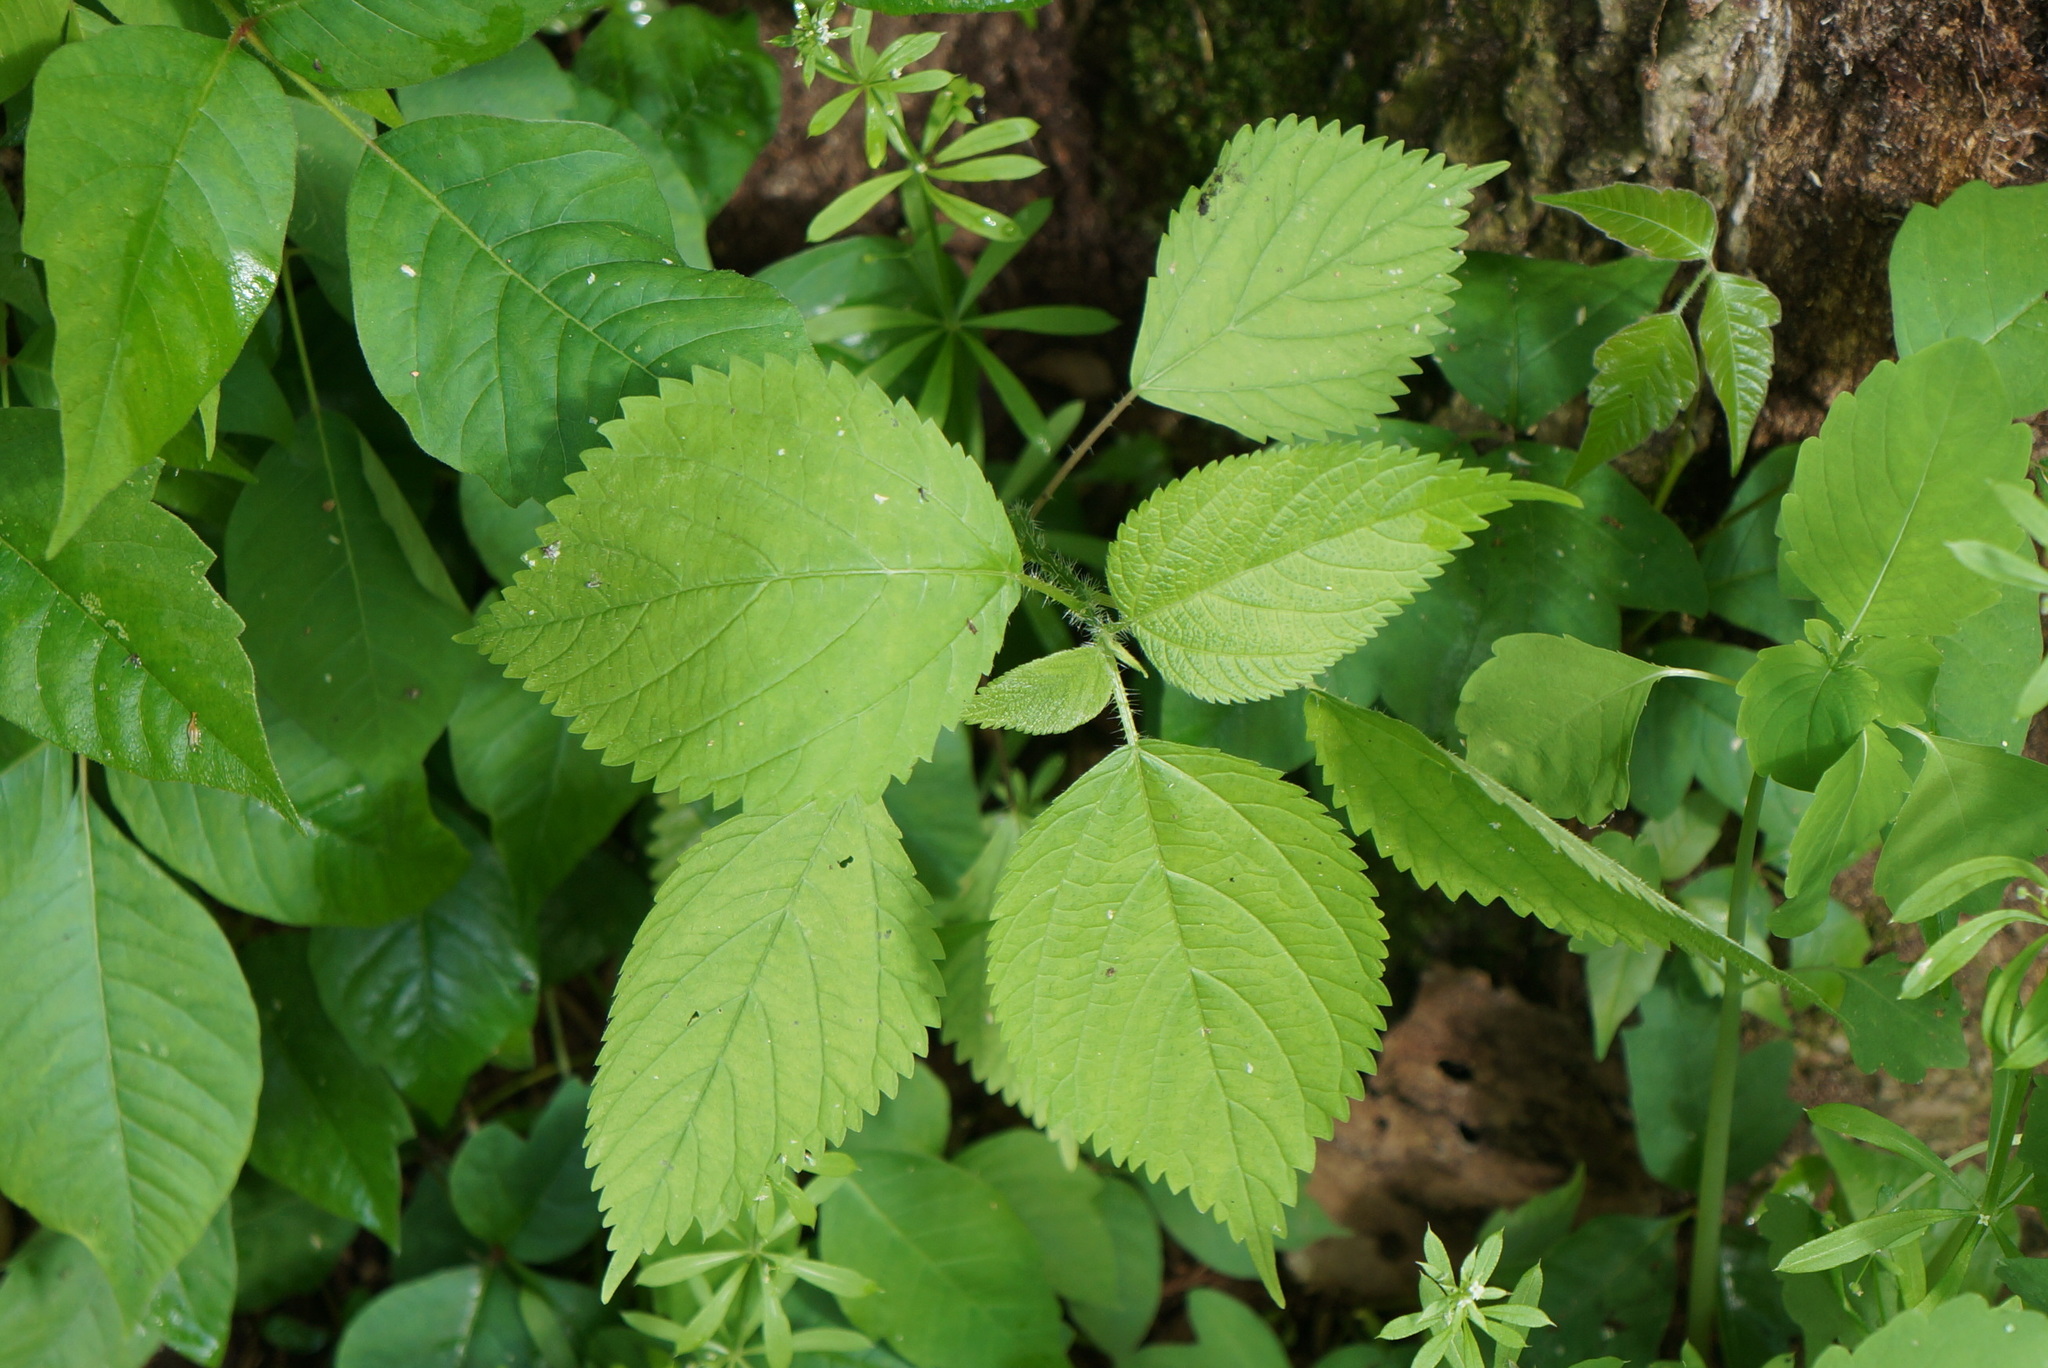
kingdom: Plantae
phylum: Tracheophyta
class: Magnoliopsida
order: Rosales
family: Urticaceae
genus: Laportea
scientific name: Laportea canadensis
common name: Canada nettle
